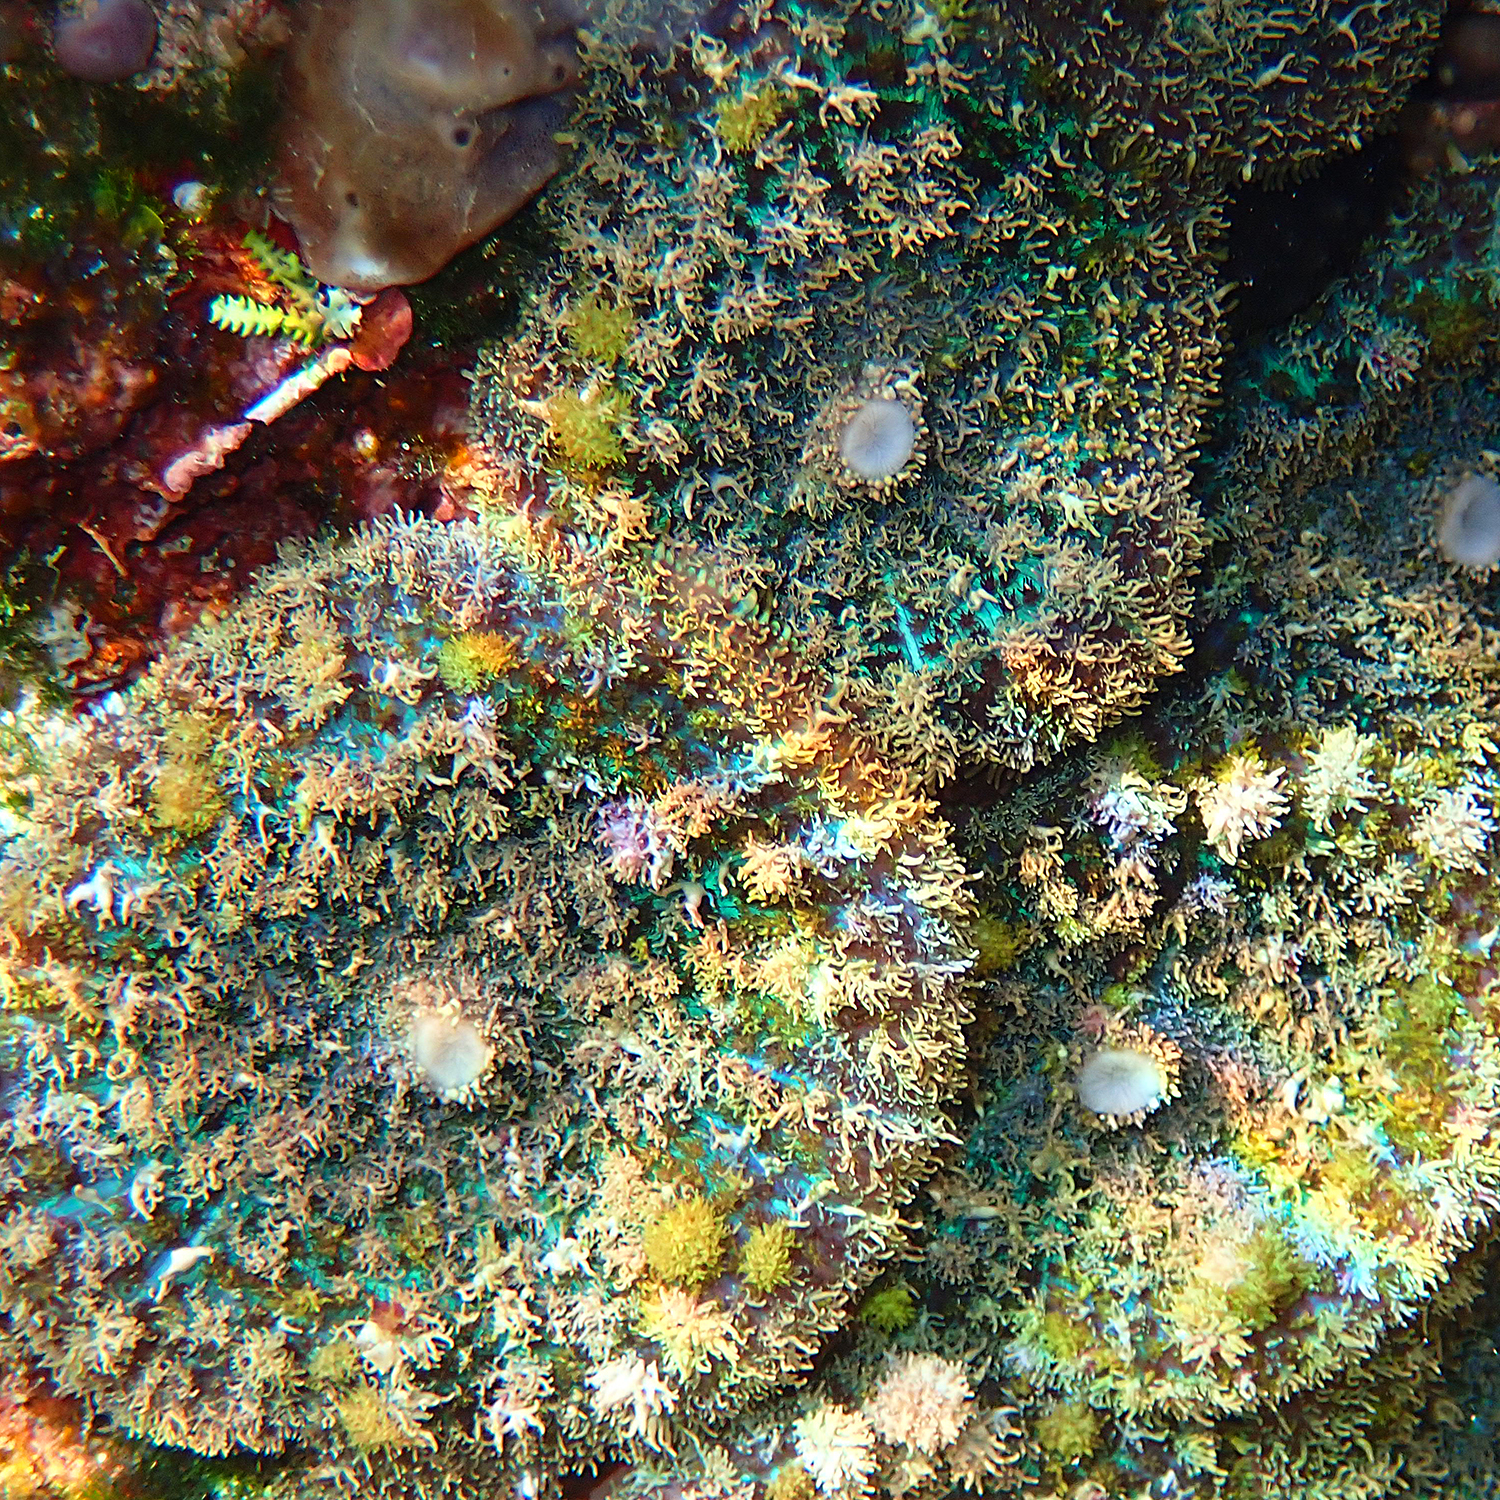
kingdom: Animalia
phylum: Cnidaria
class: Anthozoa
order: Corallimorpharia
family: Discosomidae
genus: Rhodactis
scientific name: Rhodactis bryoides
